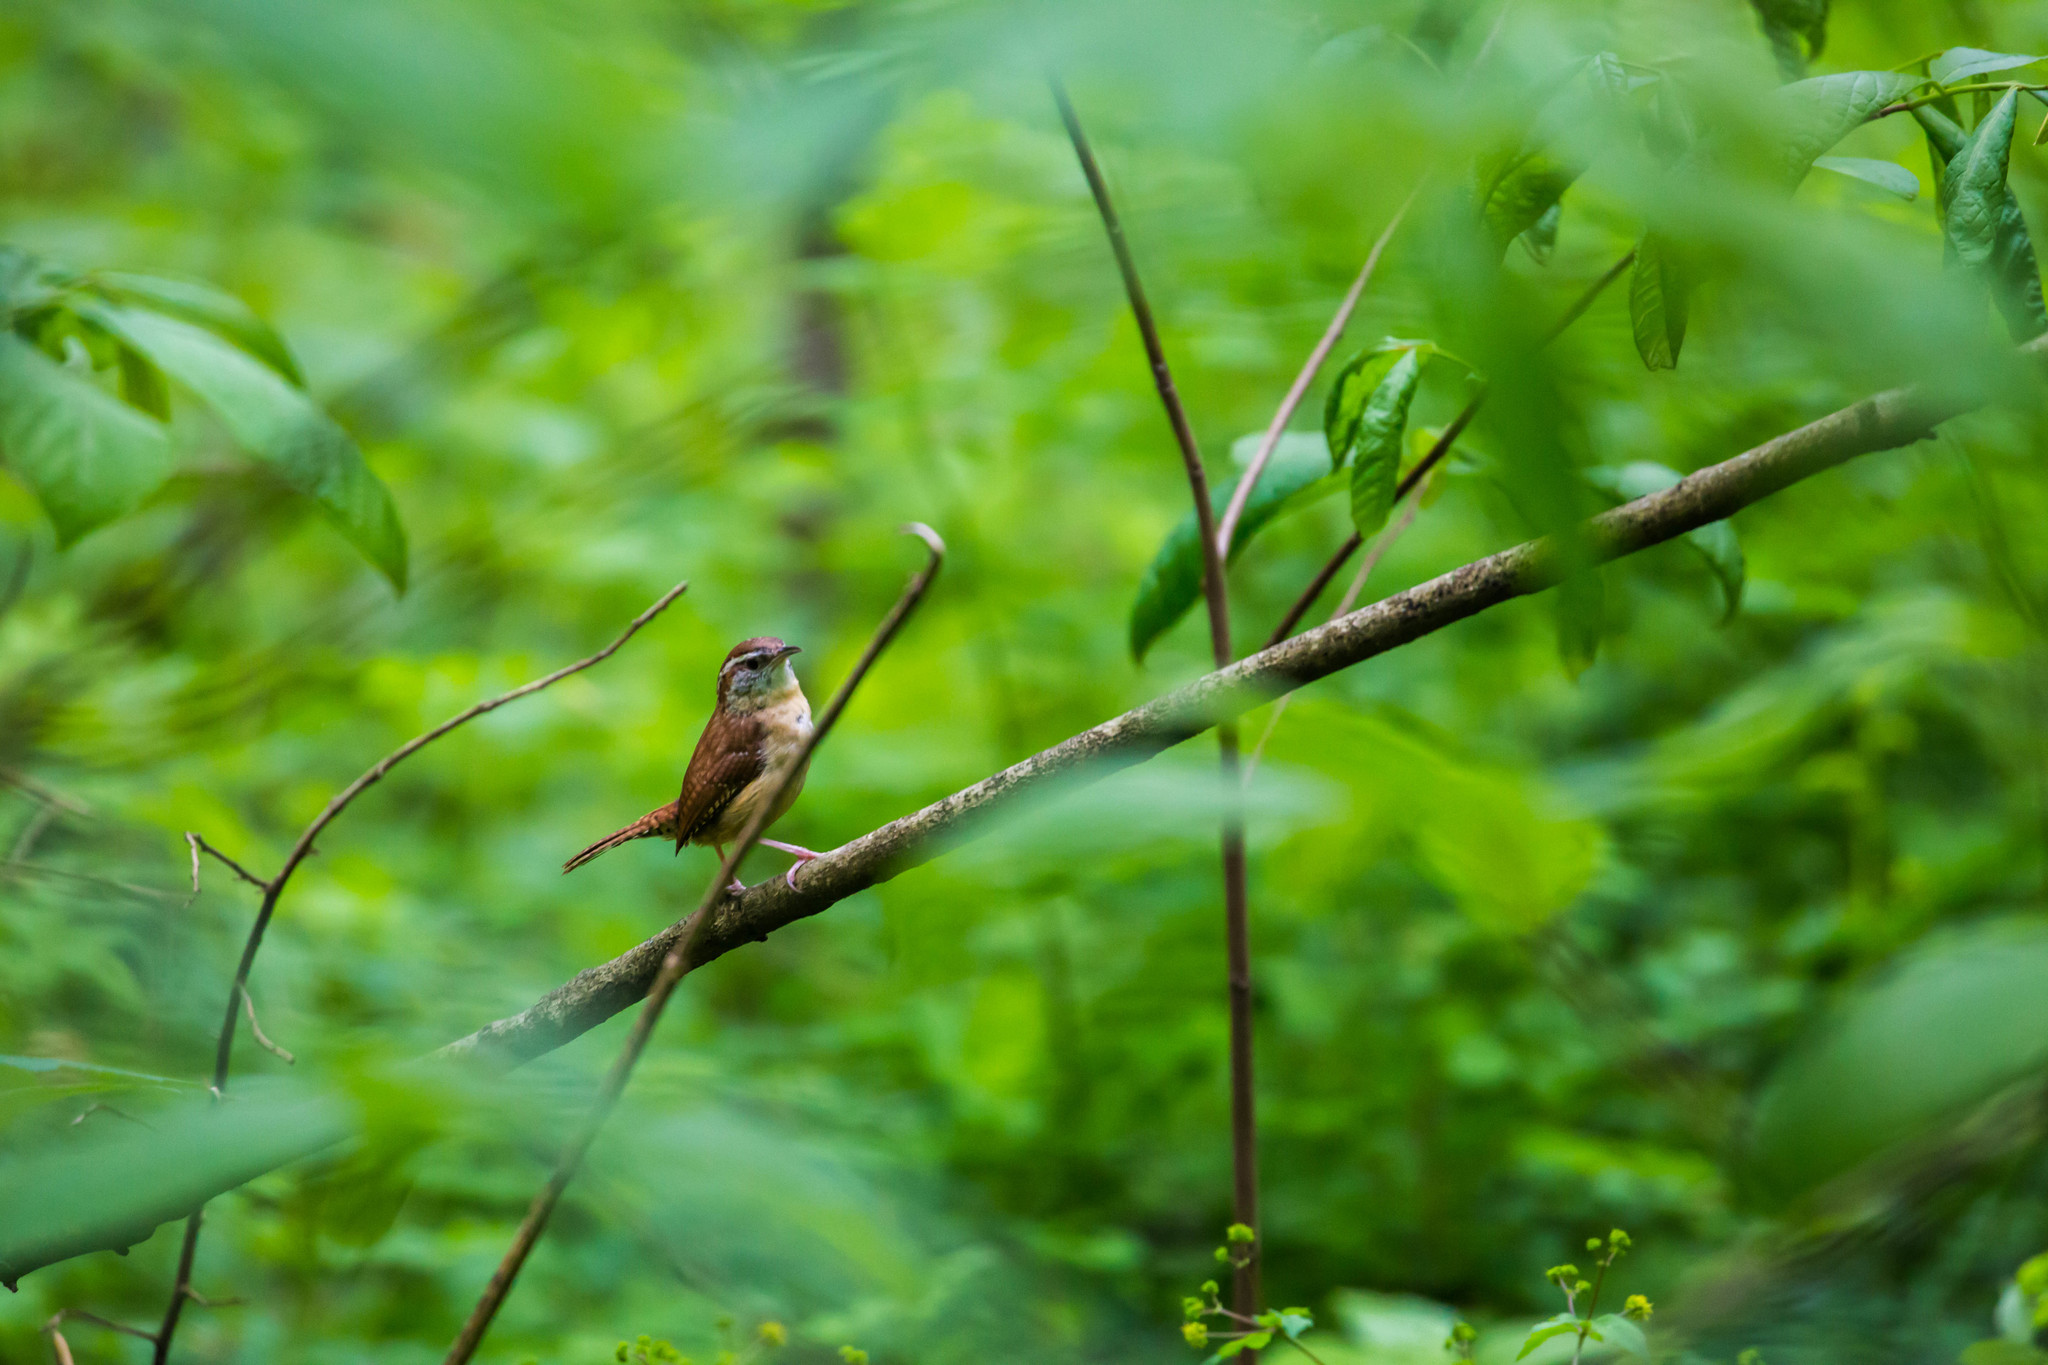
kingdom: Animalia
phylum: Chordata
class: Aves
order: Passeriformes
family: Troglodytidae
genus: Thryothorus
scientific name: Thryothorus ludovicianus
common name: Carolina wren
